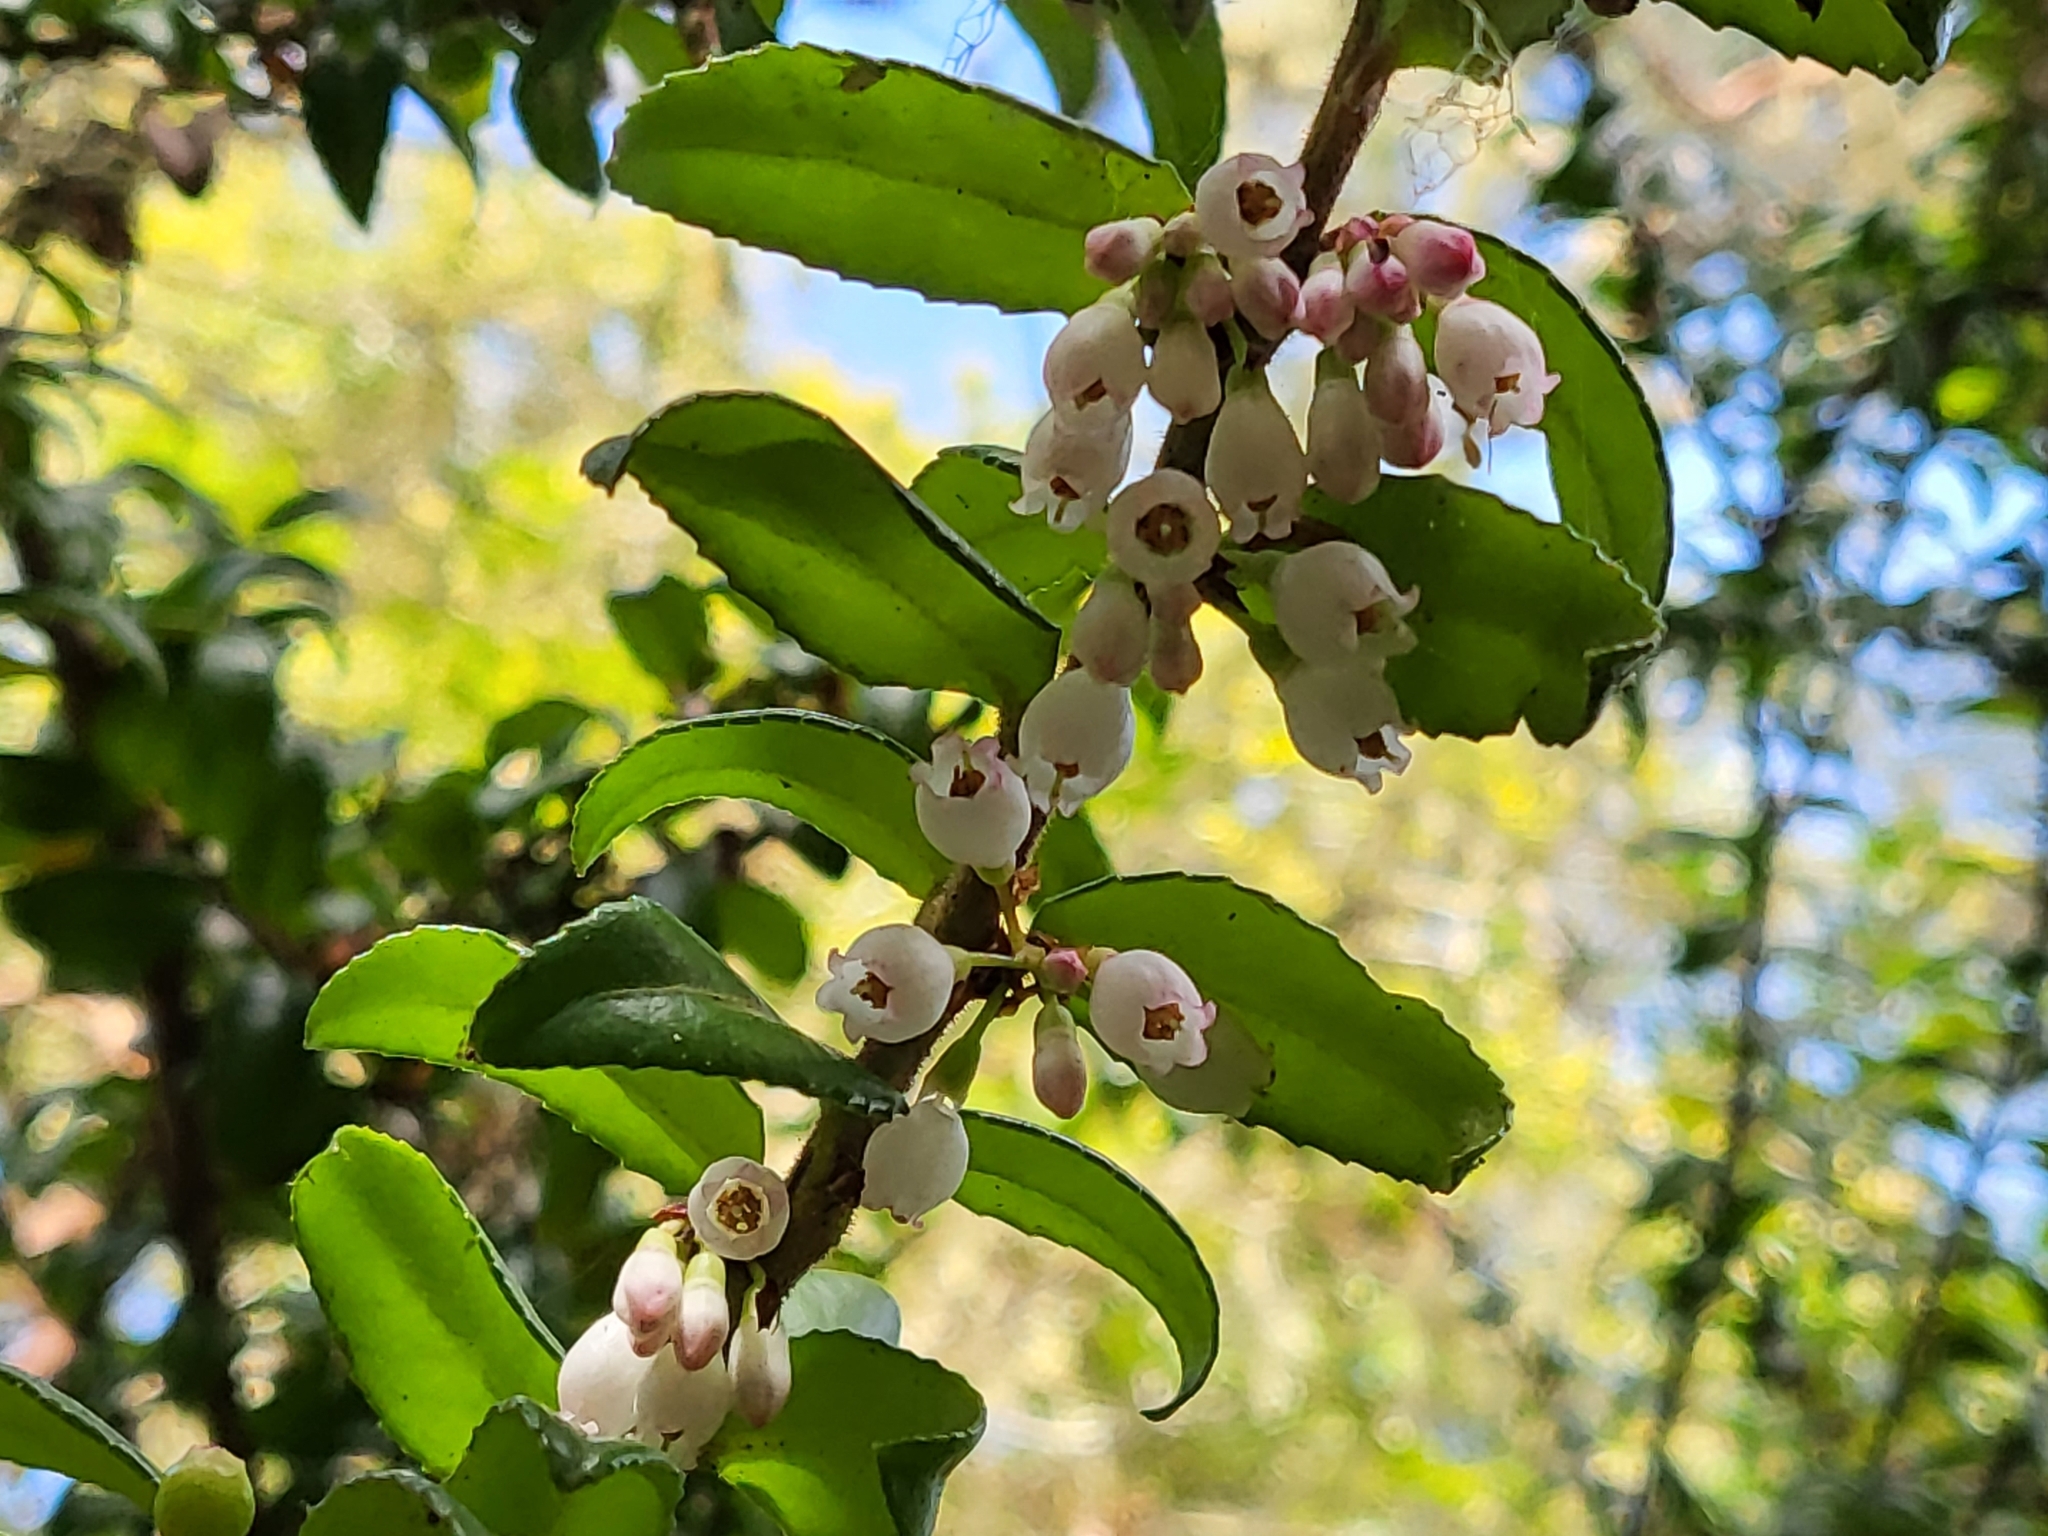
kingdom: Plantae
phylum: Tracheophyta
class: Magnoliopsida
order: Ericales
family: Ericaceae
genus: Vaccinium
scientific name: Vaccinium ovatum
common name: California-huckleberry
